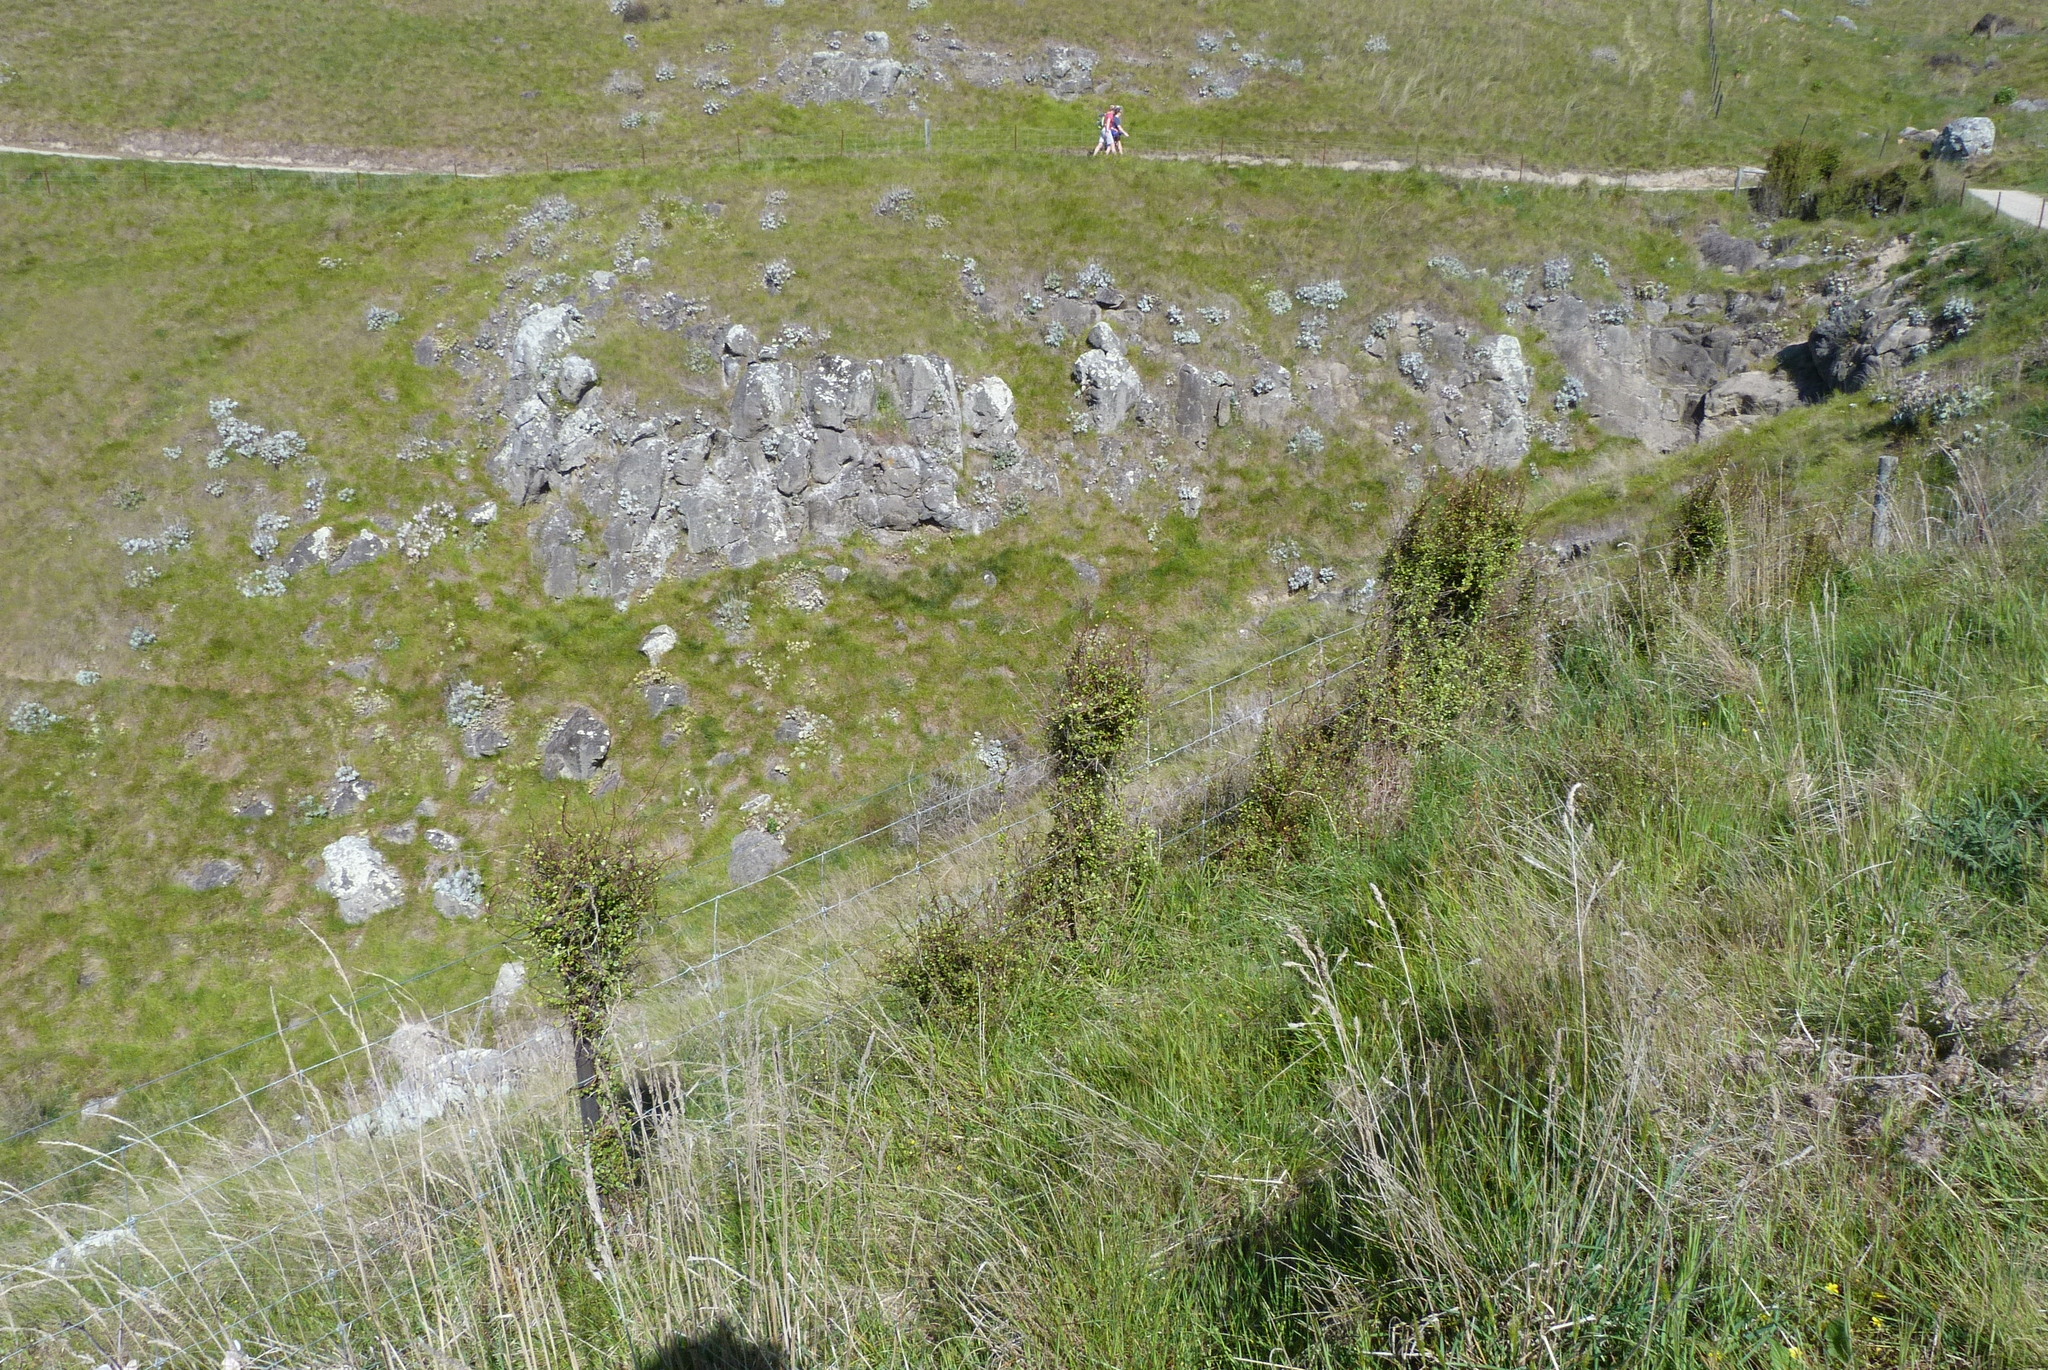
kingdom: Plantae
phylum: Tracheophyta
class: Magnoliopsida
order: Caryophyllales
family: Polygonaceae
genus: Muehlenbeckia
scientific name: Muehlenbeckia complexa
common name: Wireplant
